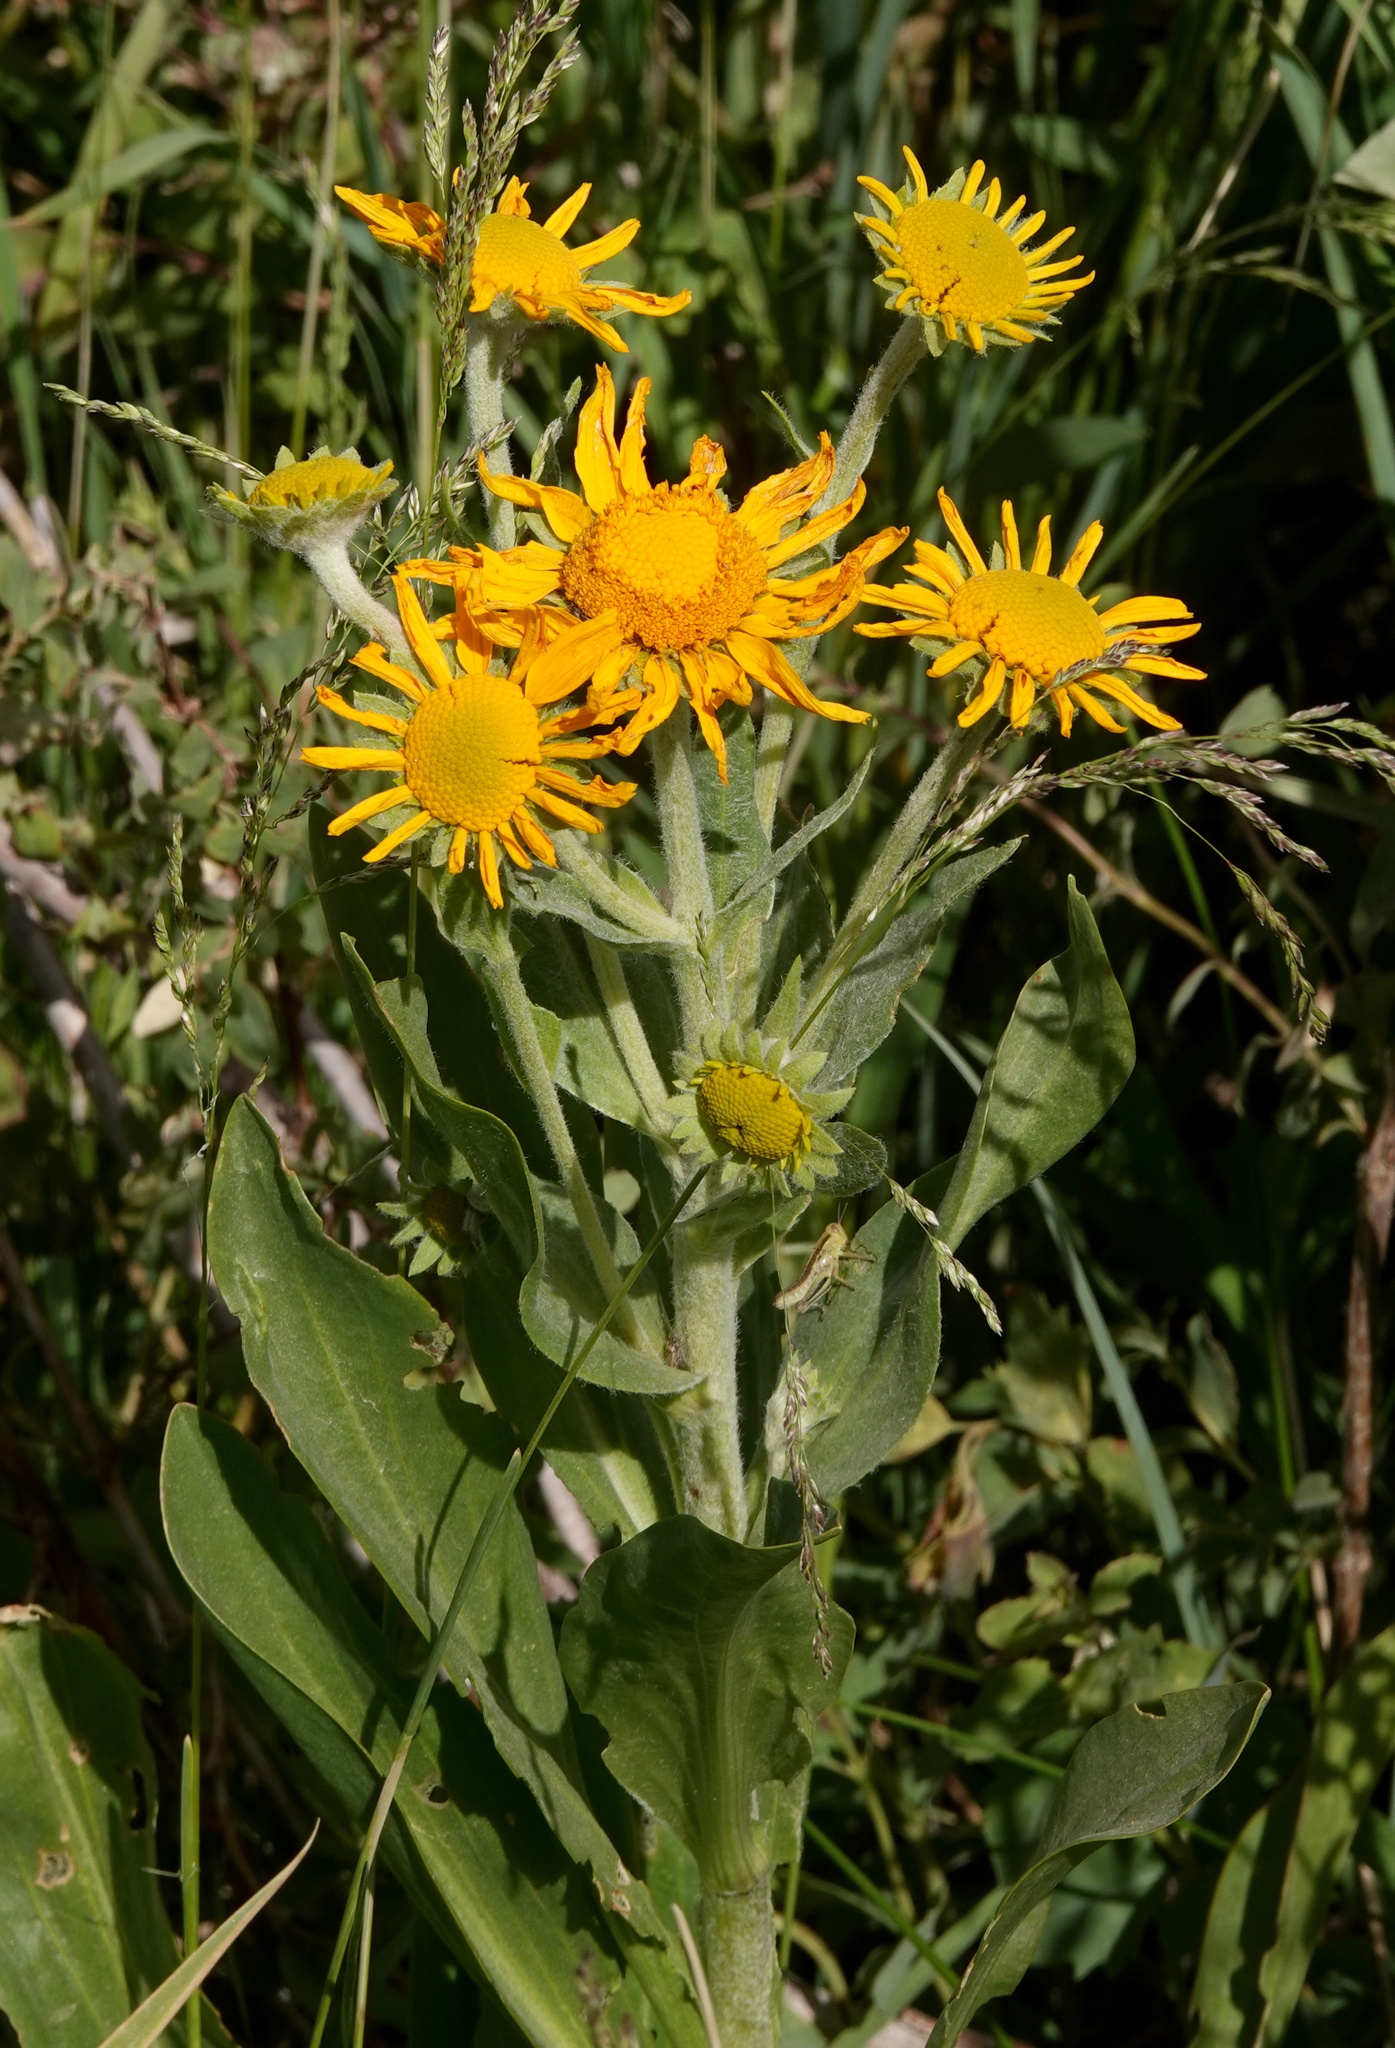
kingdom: Plantae
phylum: Tracheophyta
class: Magnoliopsida
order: Asterales
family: Asteraceae
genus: Hymenoxys
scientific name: Hymenoxys hoopesii
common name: Orange-sneezeweed
